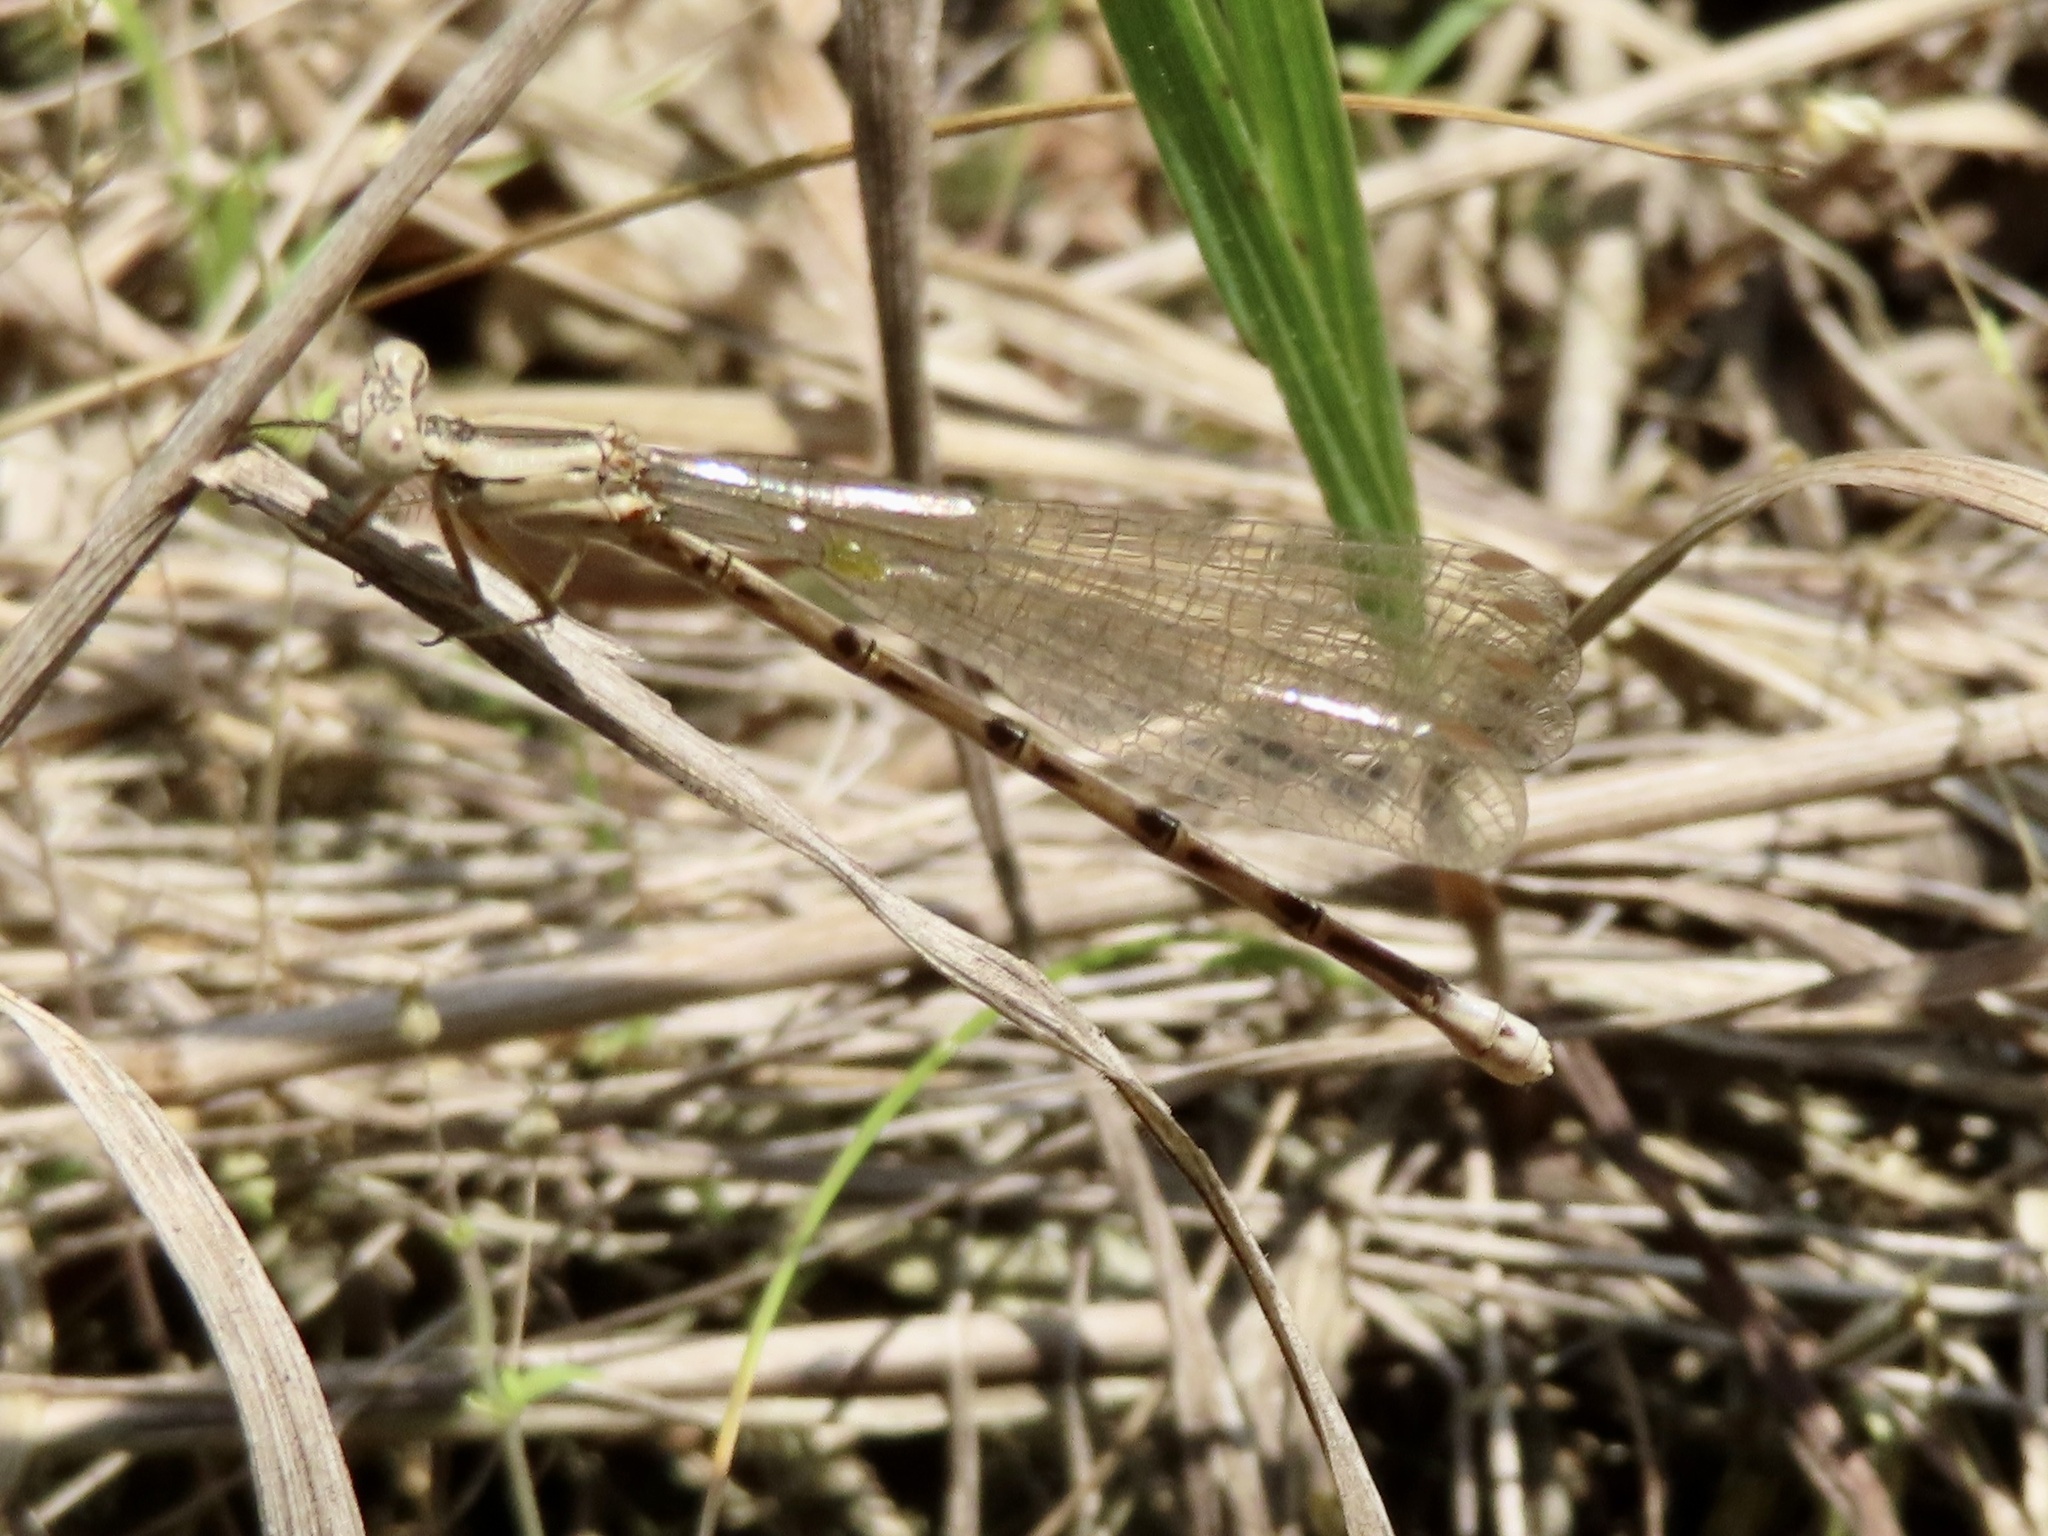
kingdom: Animalia
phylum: Arthropoda
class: Insecta
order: Odonata
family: Coenagrionidae
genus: Argia
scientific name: Argia funebris
